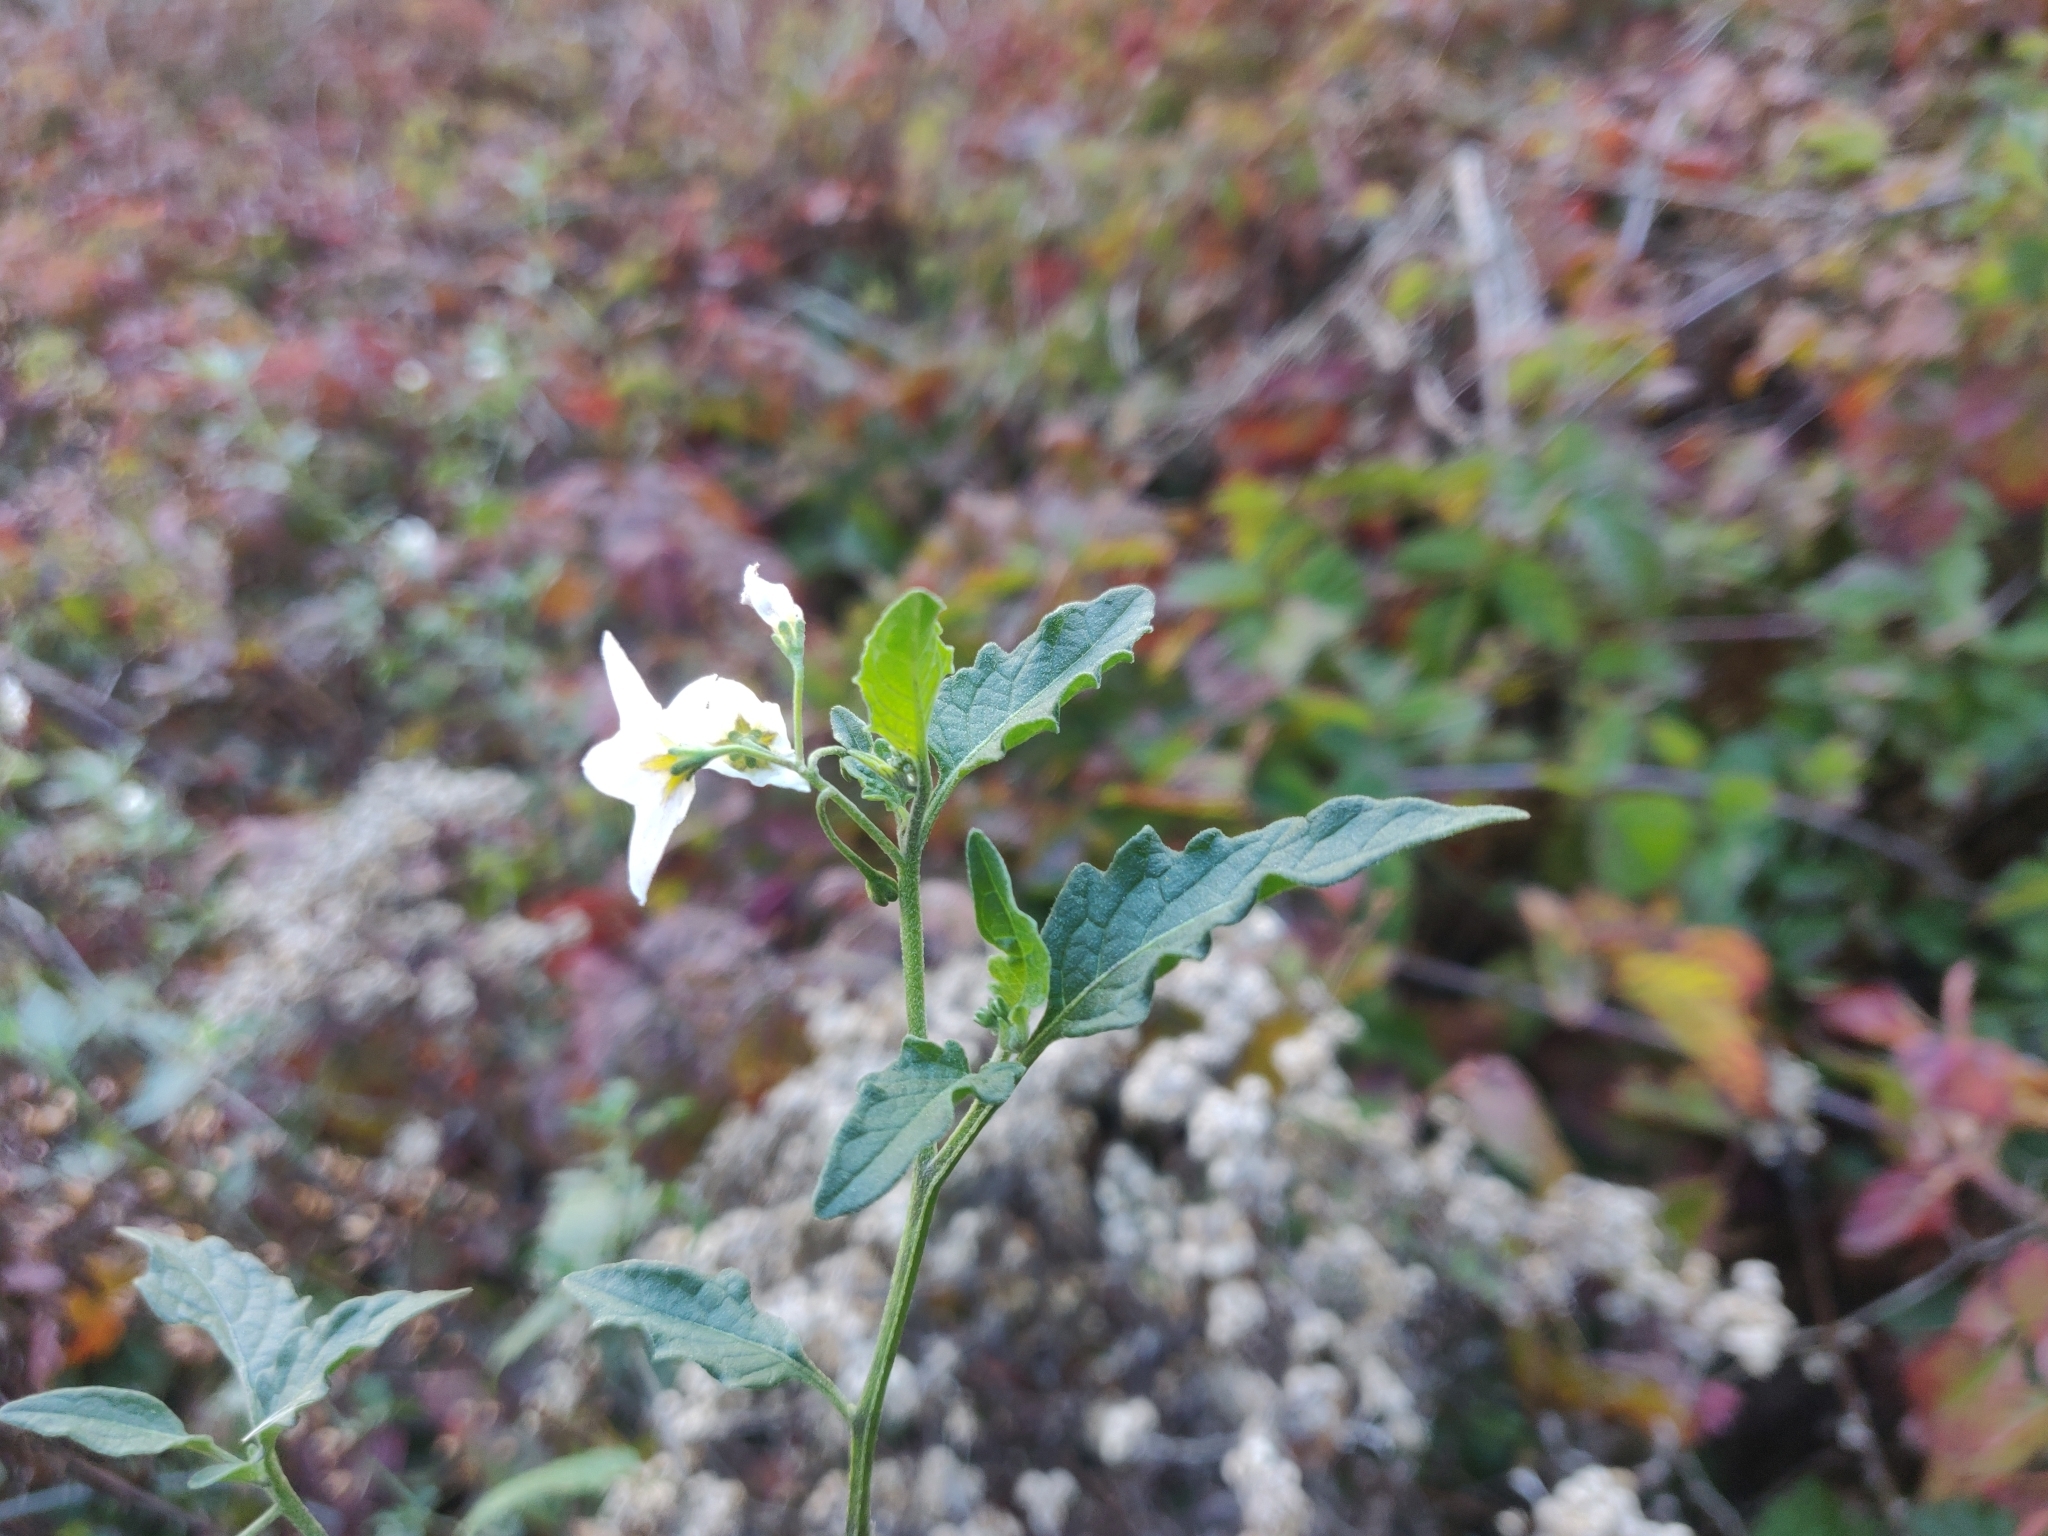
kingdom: Plantae
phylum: Tracheophyta
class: Magnoliopsida
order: Solanales
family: Solanaceae
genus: Solanum
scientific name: Solanum furcatum
